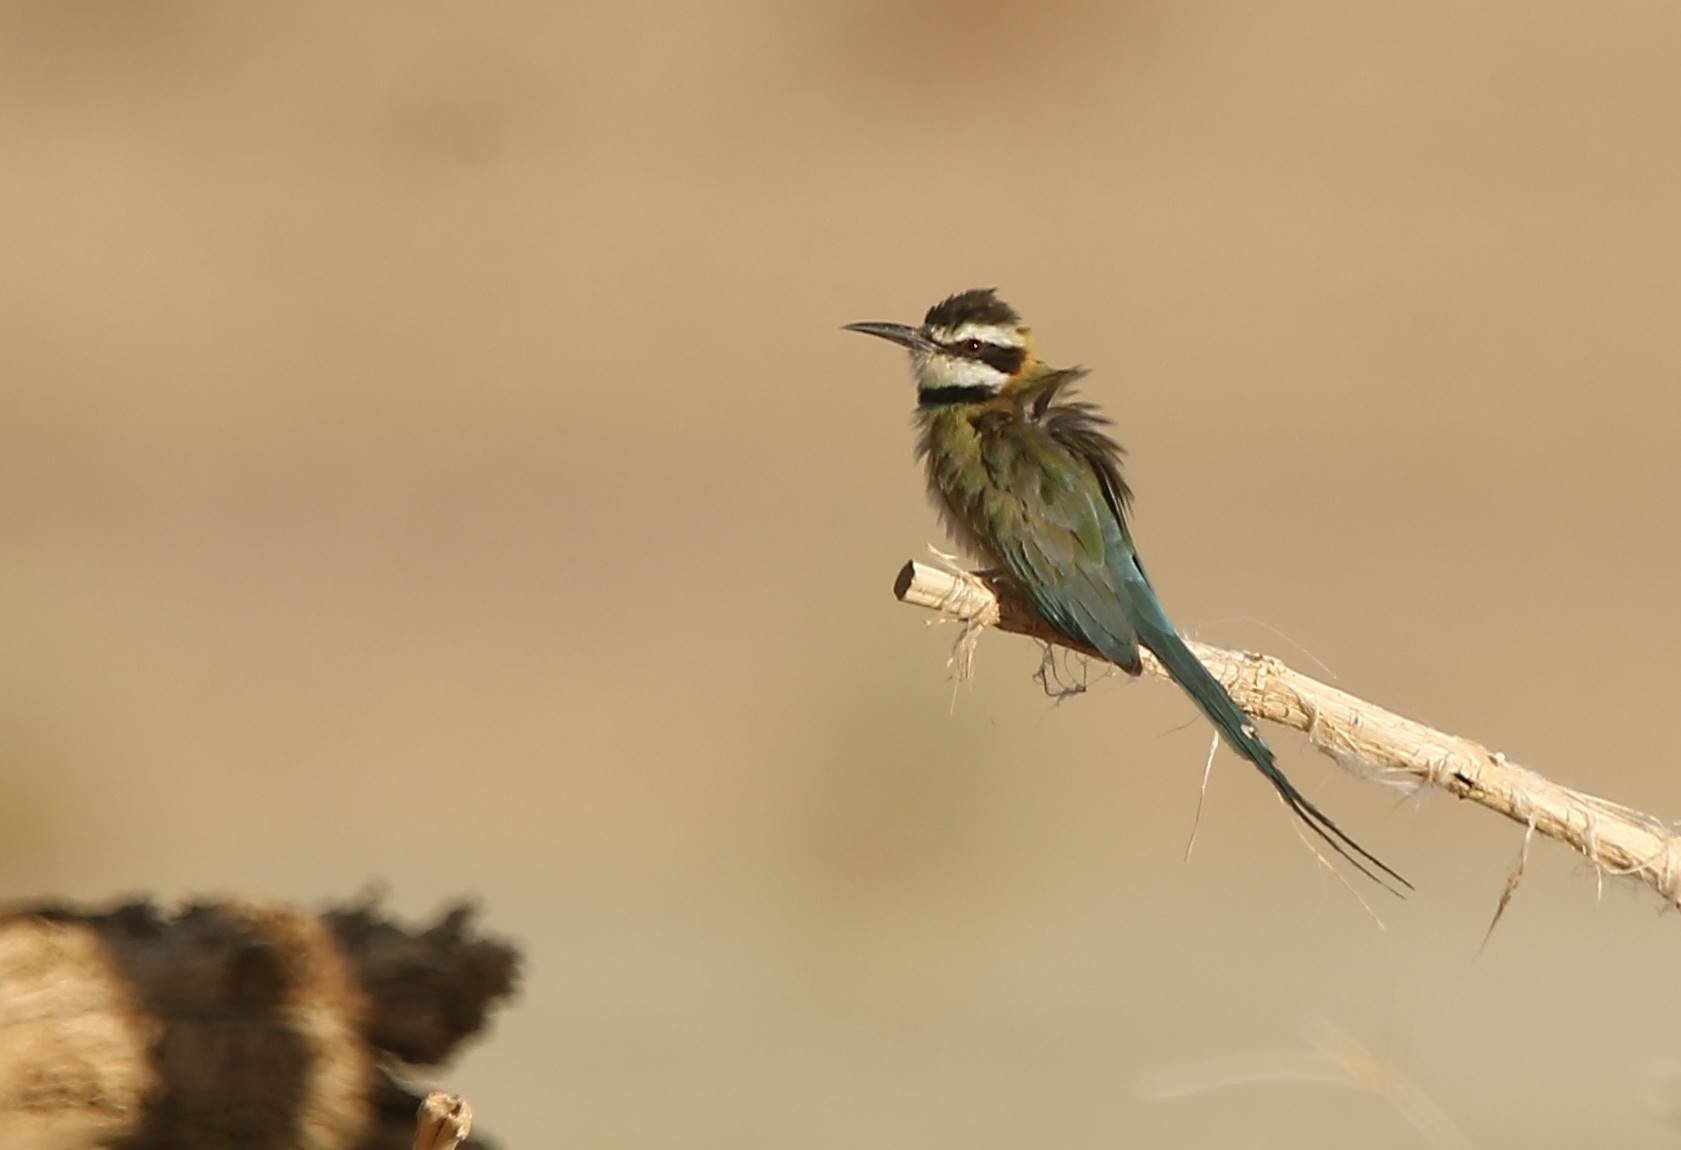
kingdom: Animalia
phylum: Chordata
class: Aves
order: Coraciiformes
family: Meropidae
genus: Merops
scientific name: Merops albicollis
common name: White-throated bee-eater
